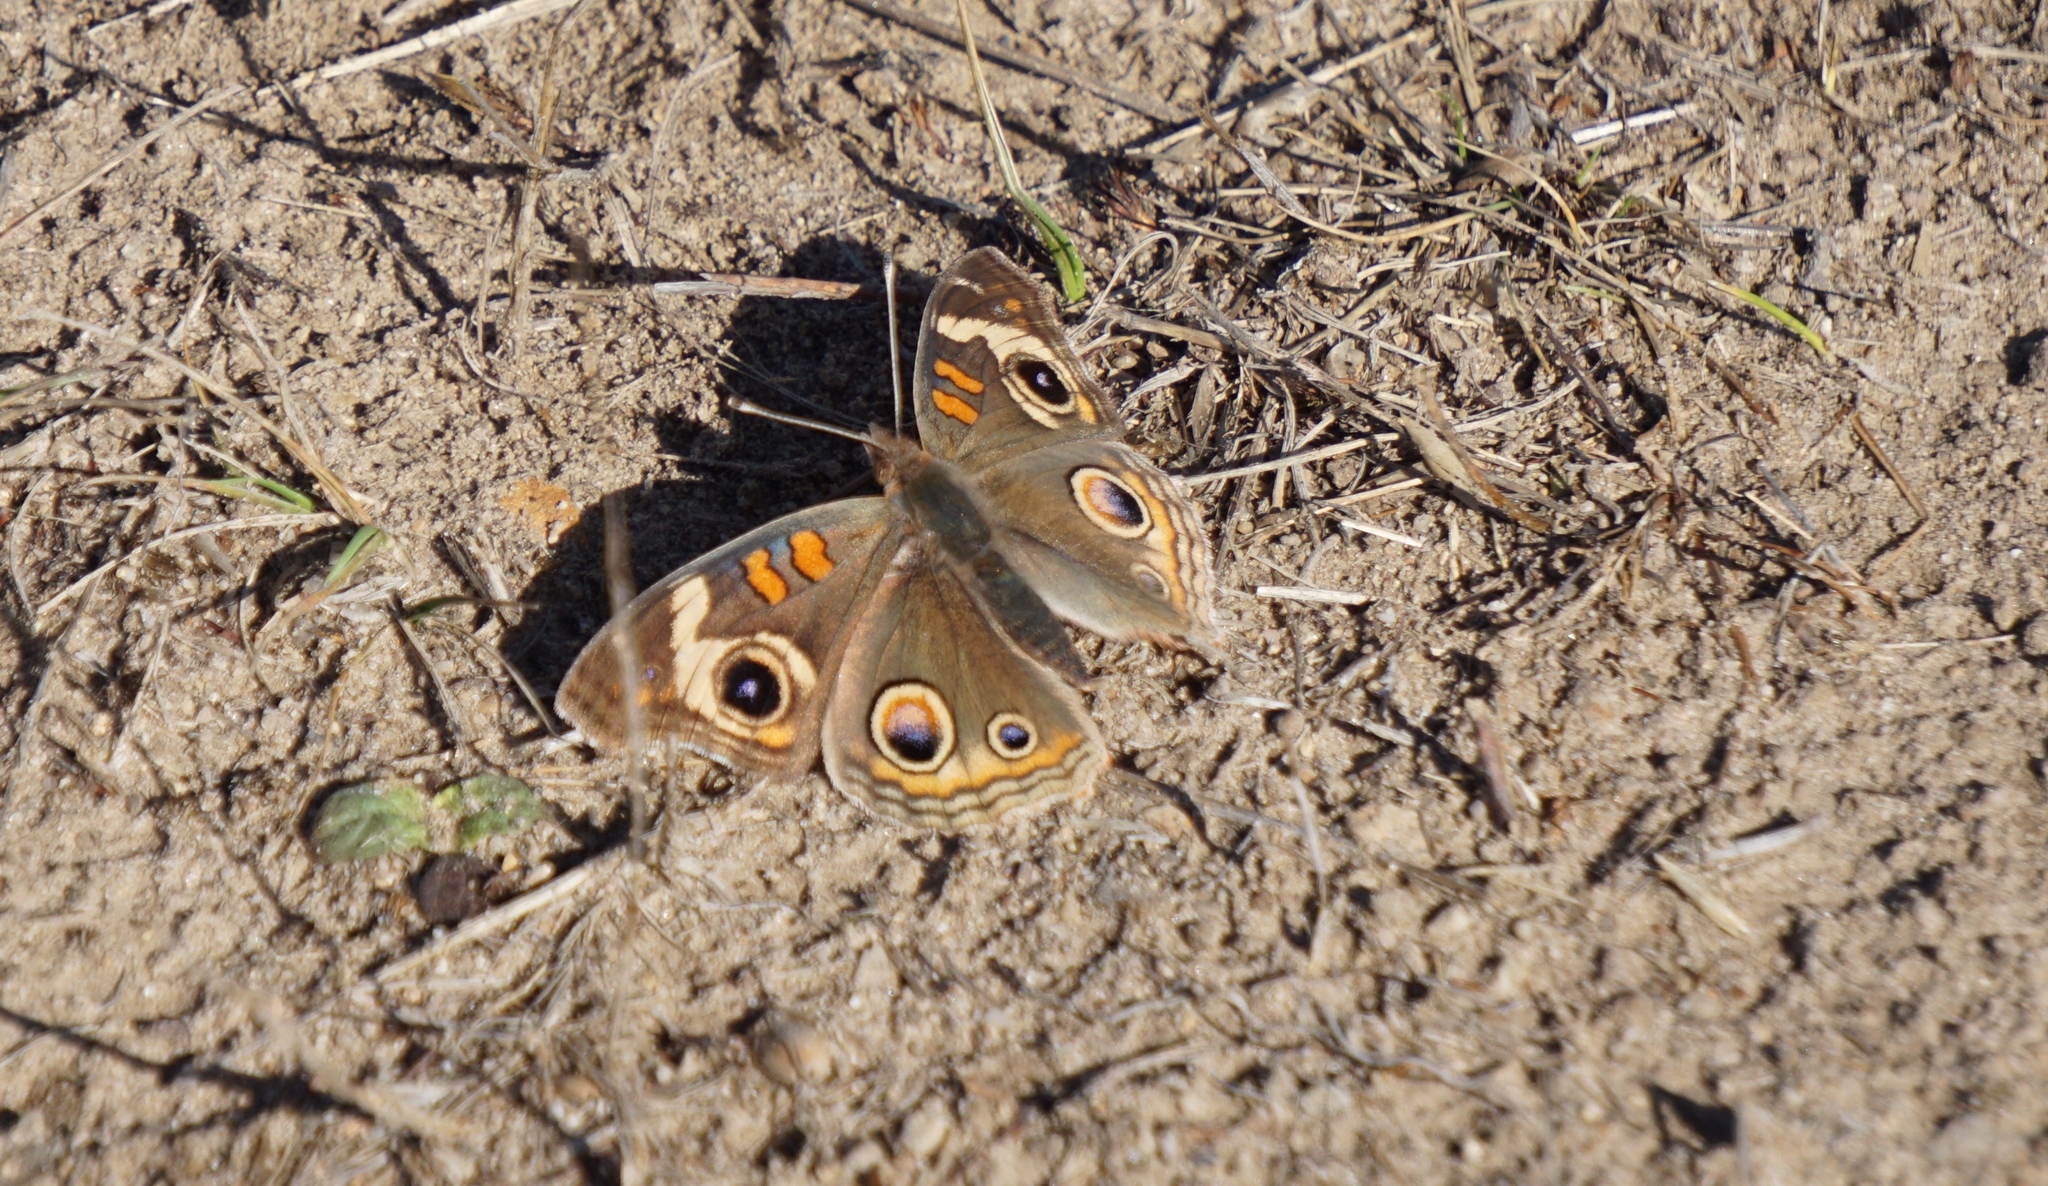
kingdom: Animalia
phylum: Arthropoda
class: Insecta
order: Lepidoptera
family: Nymphalidae
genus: Junonia
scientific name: Junonia grisea
